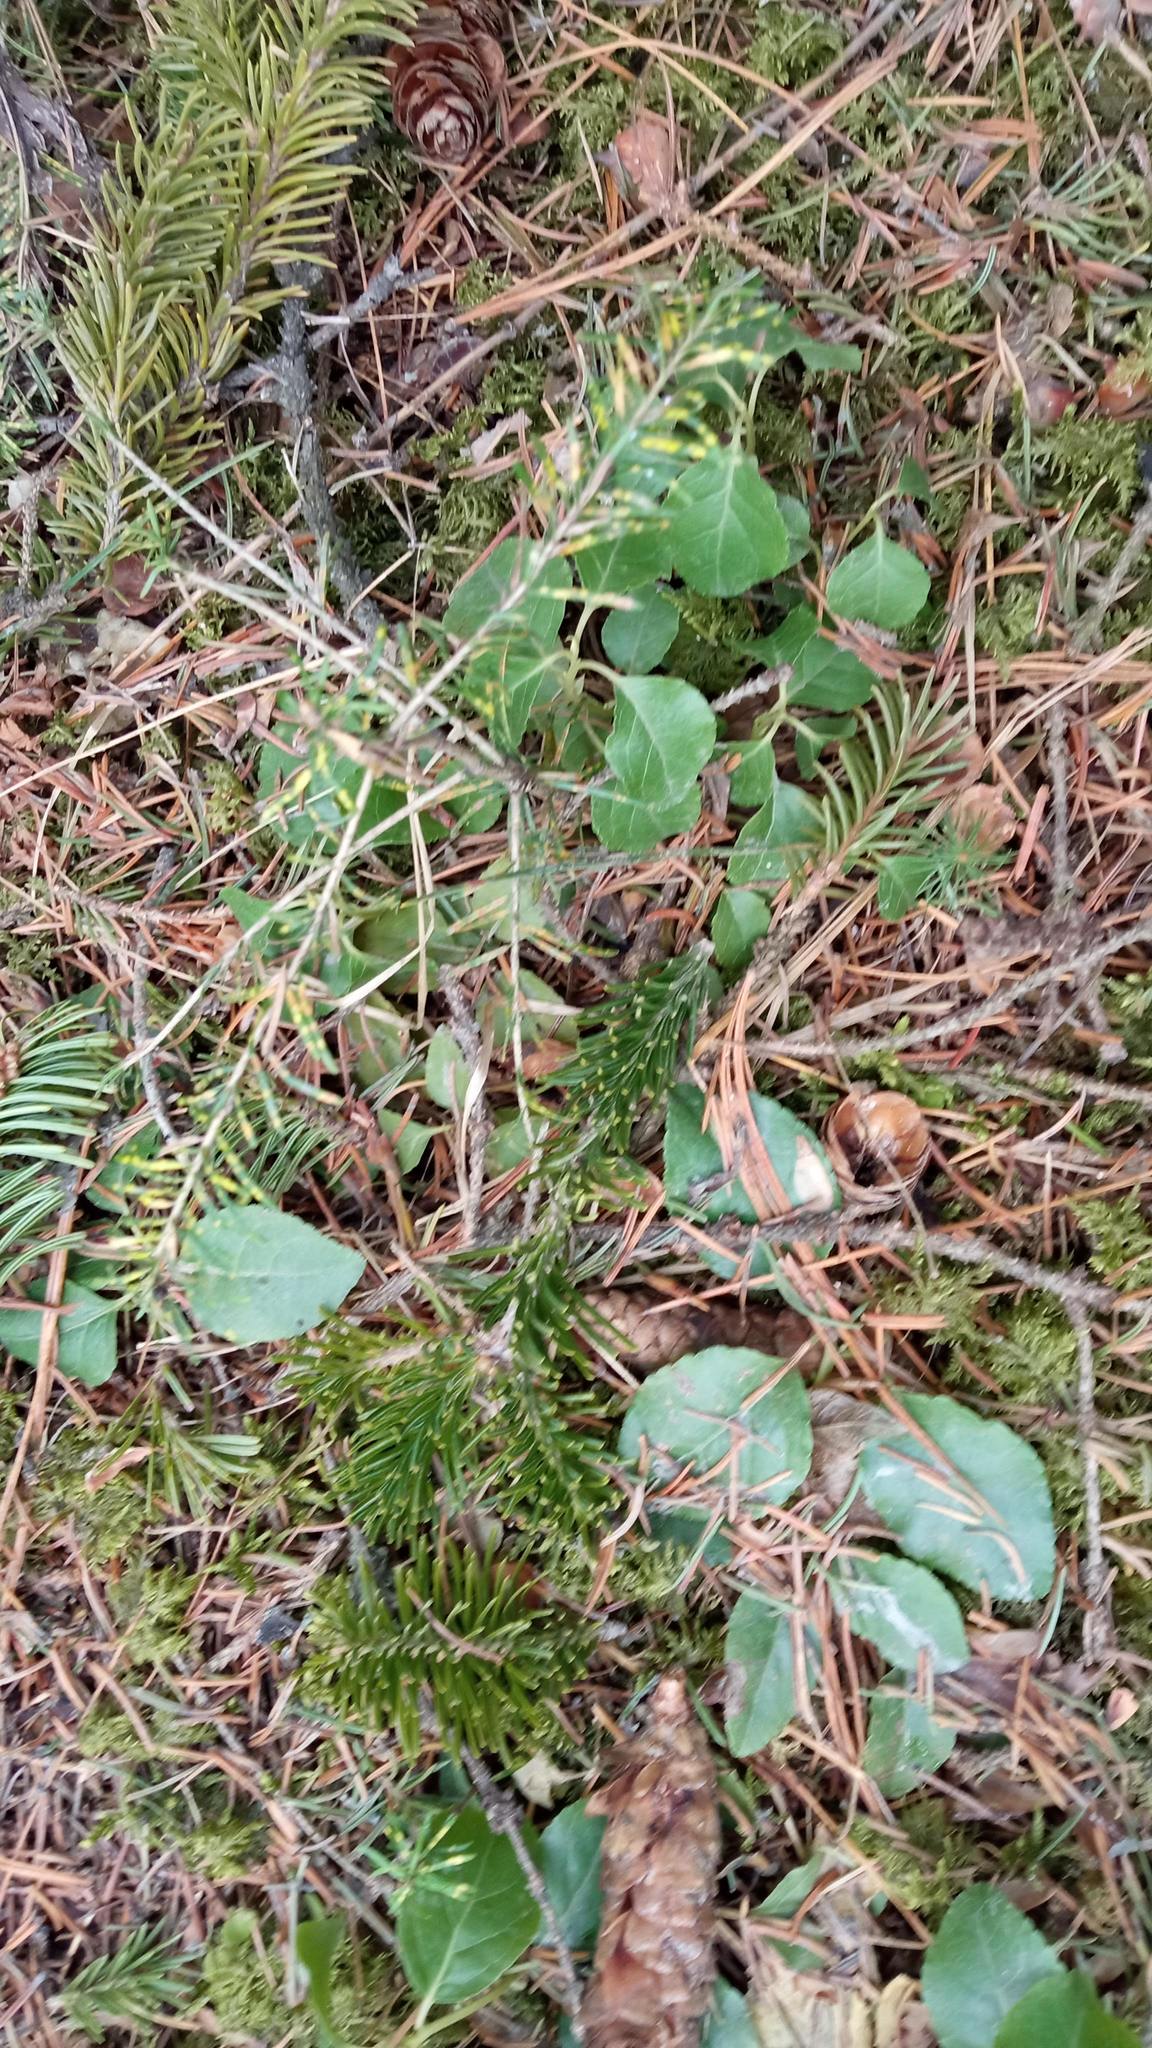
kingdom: Plantae
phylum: Tracheophyta
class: Magnoliopsida
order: Ericales
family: Ericaceae
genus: Orthilia
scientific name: Orthilia secunda
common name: One-sided orthilia
